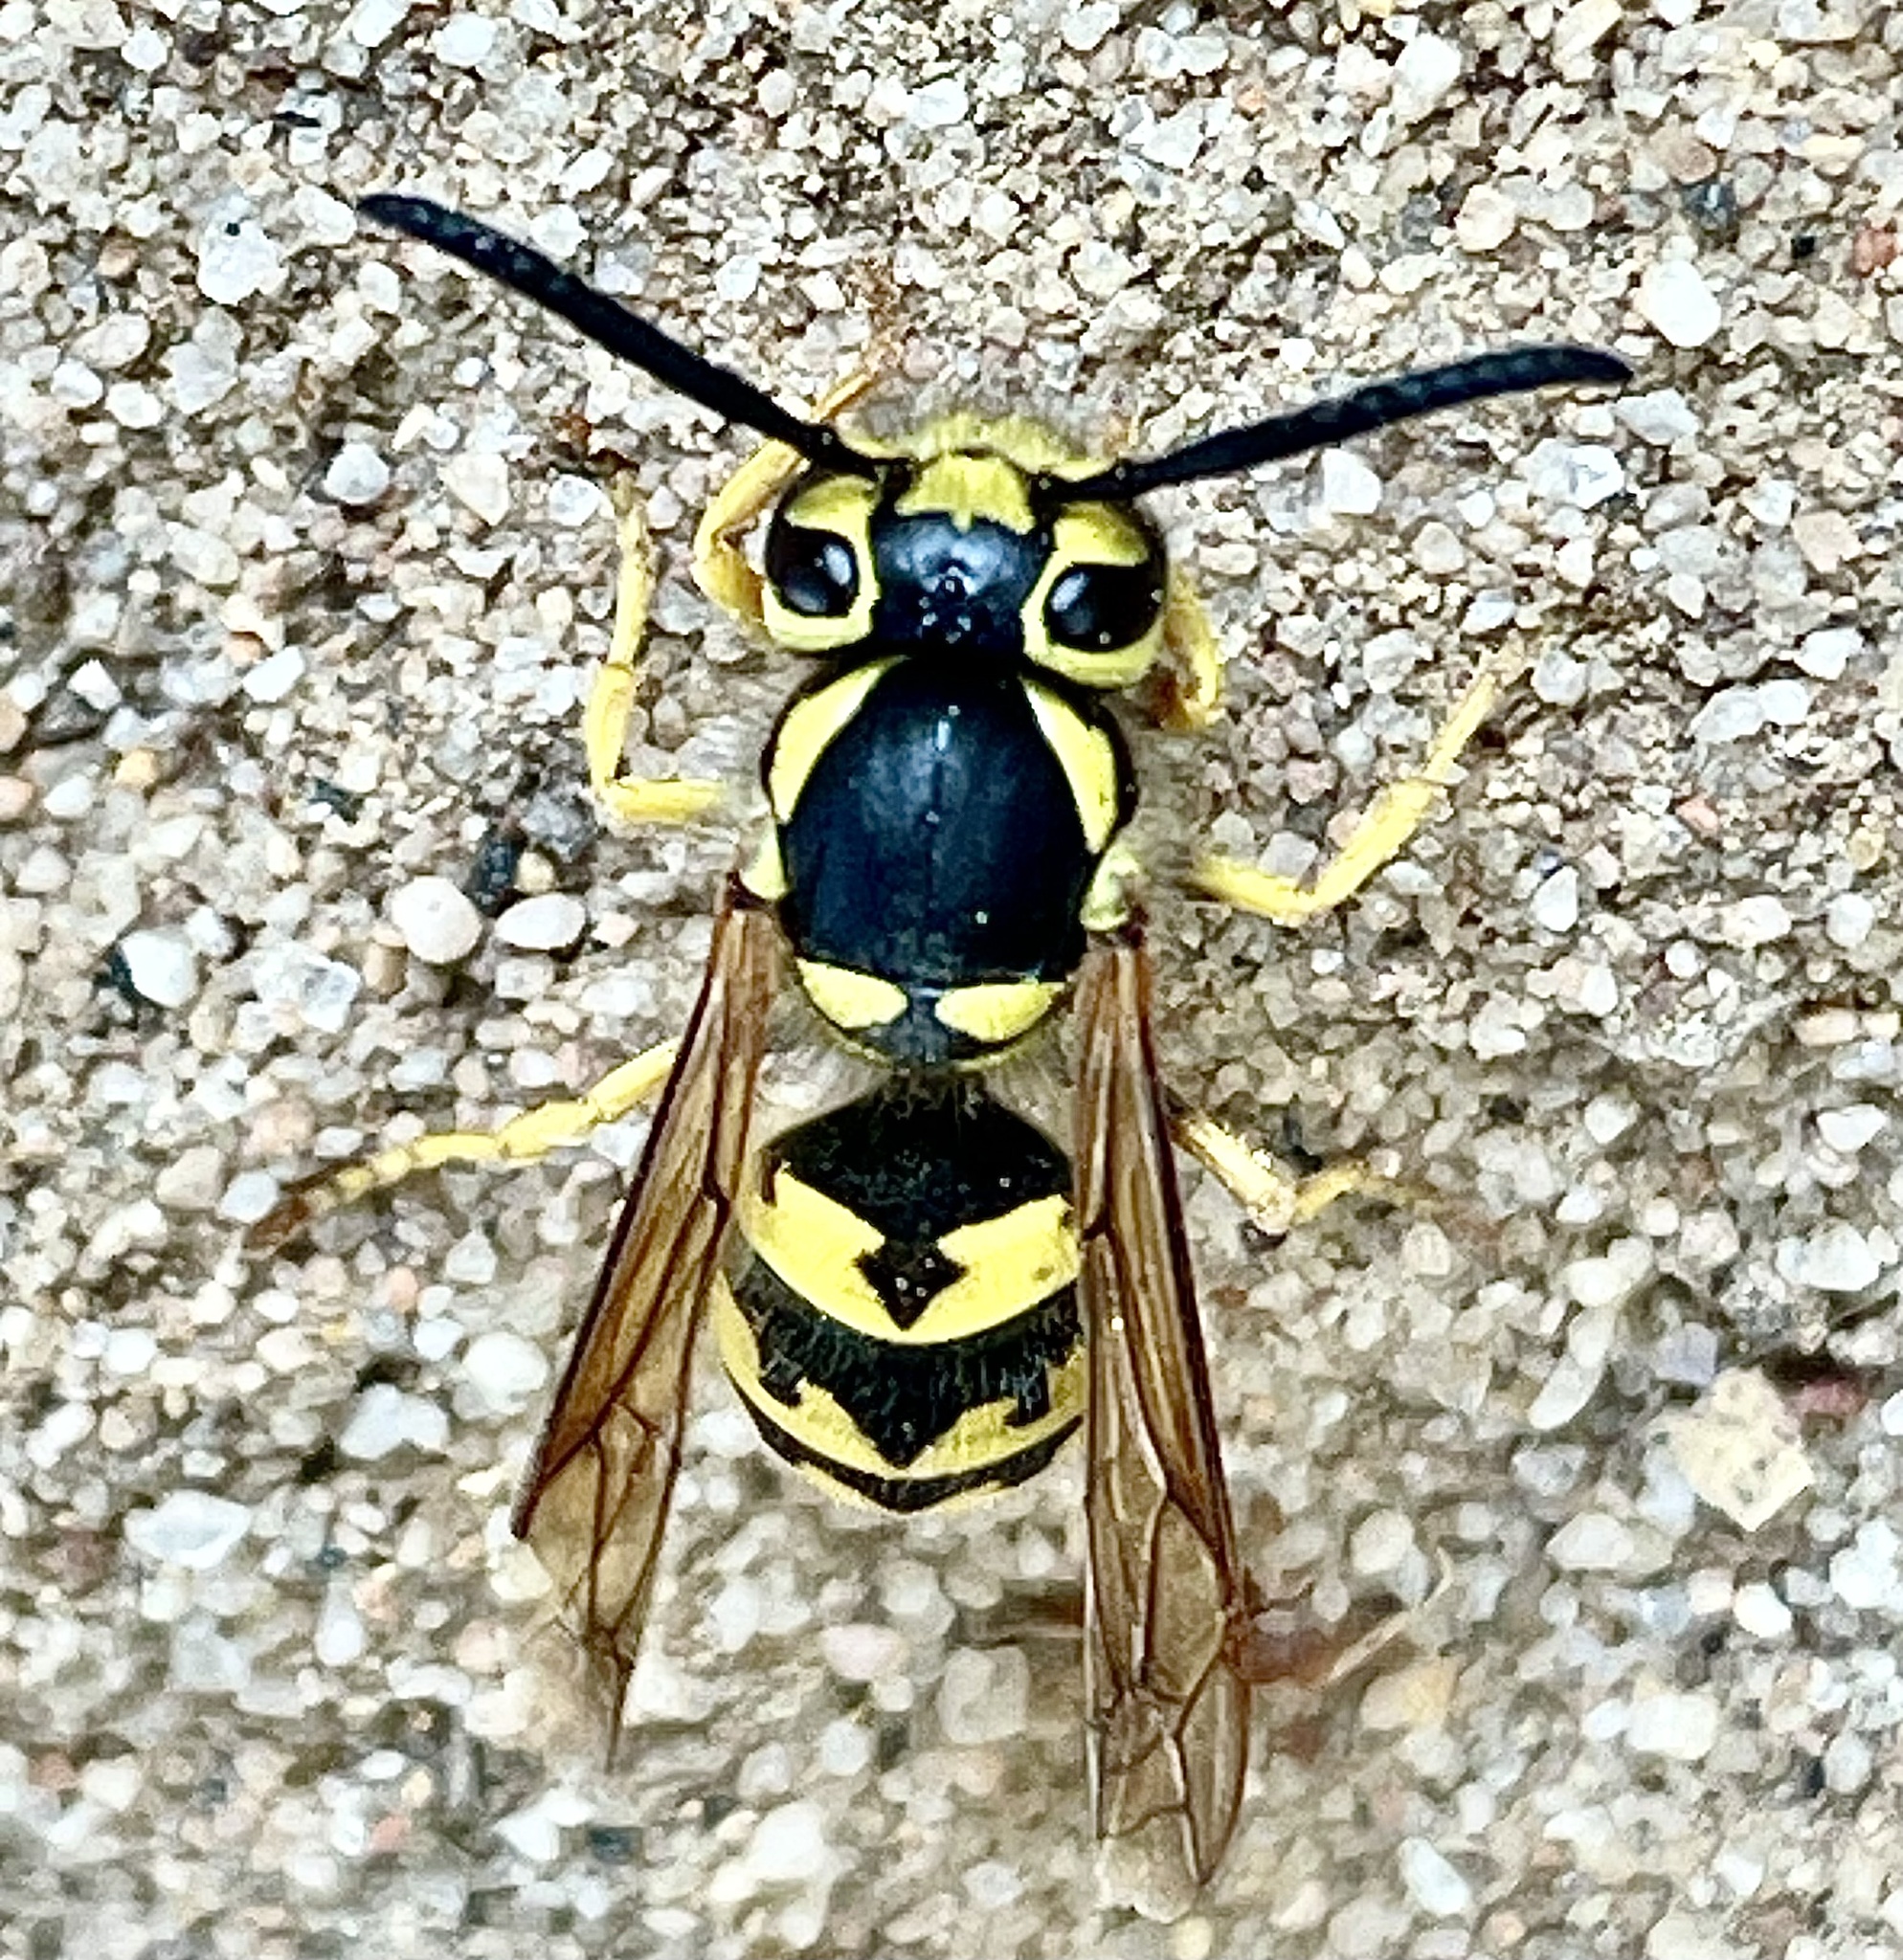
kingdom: Animalia
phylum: Arthropoda
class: Insecta
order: Hymenoptera
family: Vespidae
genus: Vespula
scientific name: Vespula pensylvanica
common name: Western yellowjacket
